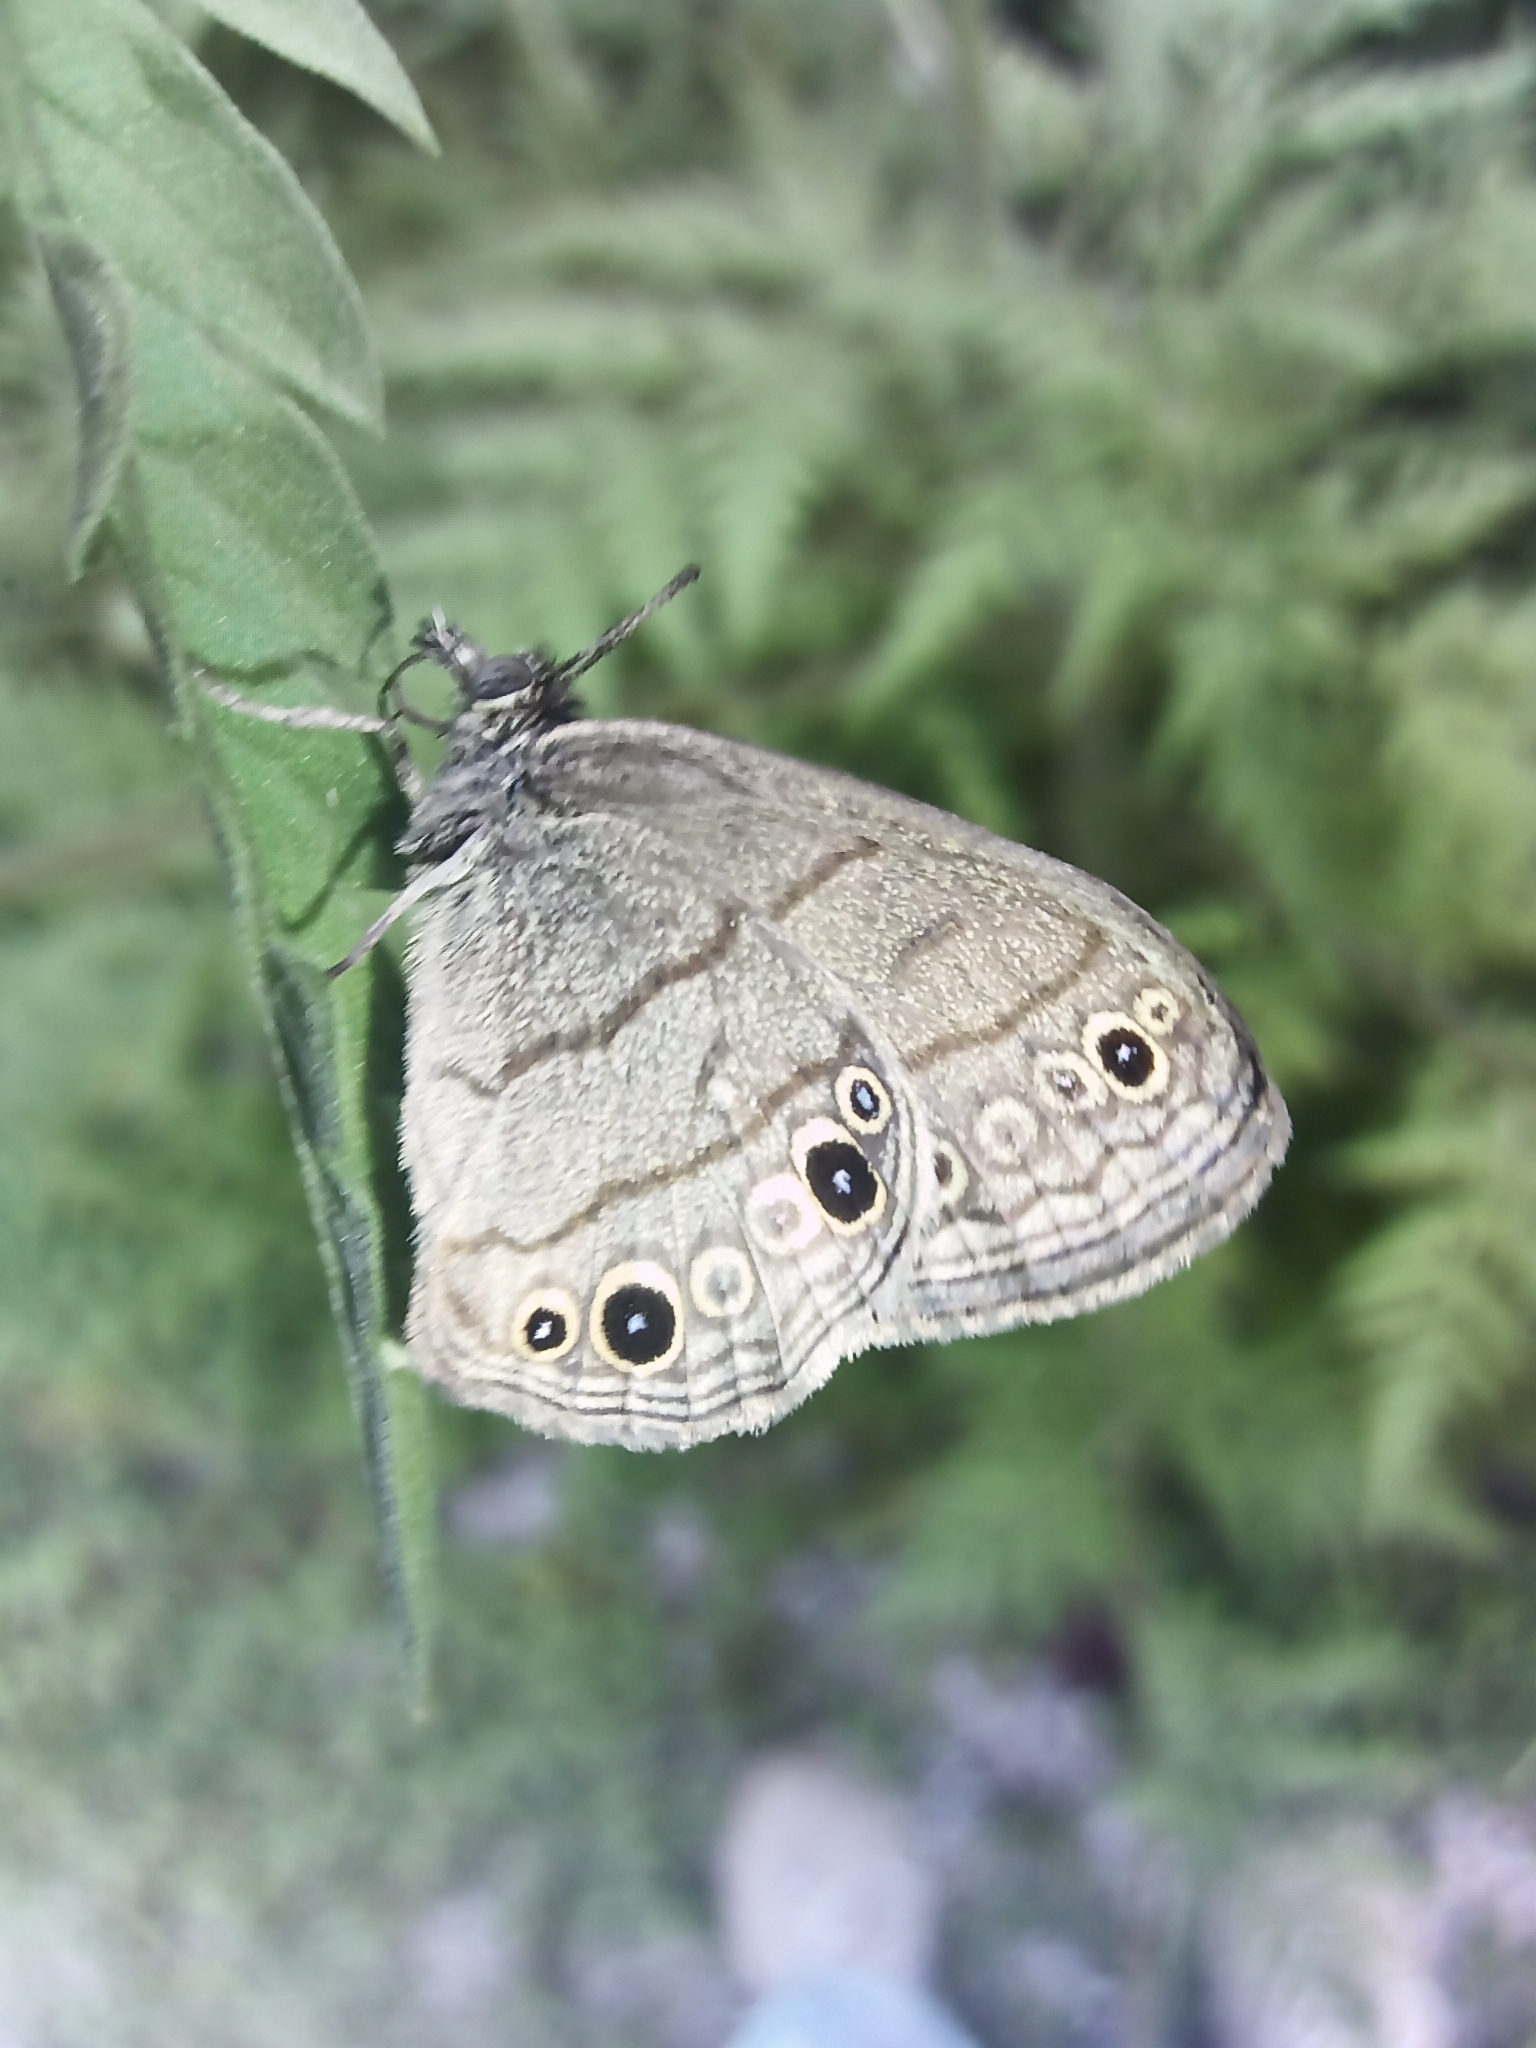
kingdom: Animalia
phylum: Arthropoda
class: Insecta
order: Lepidoptera
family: Nymphalidae
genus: Hermeuptychia
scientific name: Hermeuptychia hermes
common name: Hermes satyr
